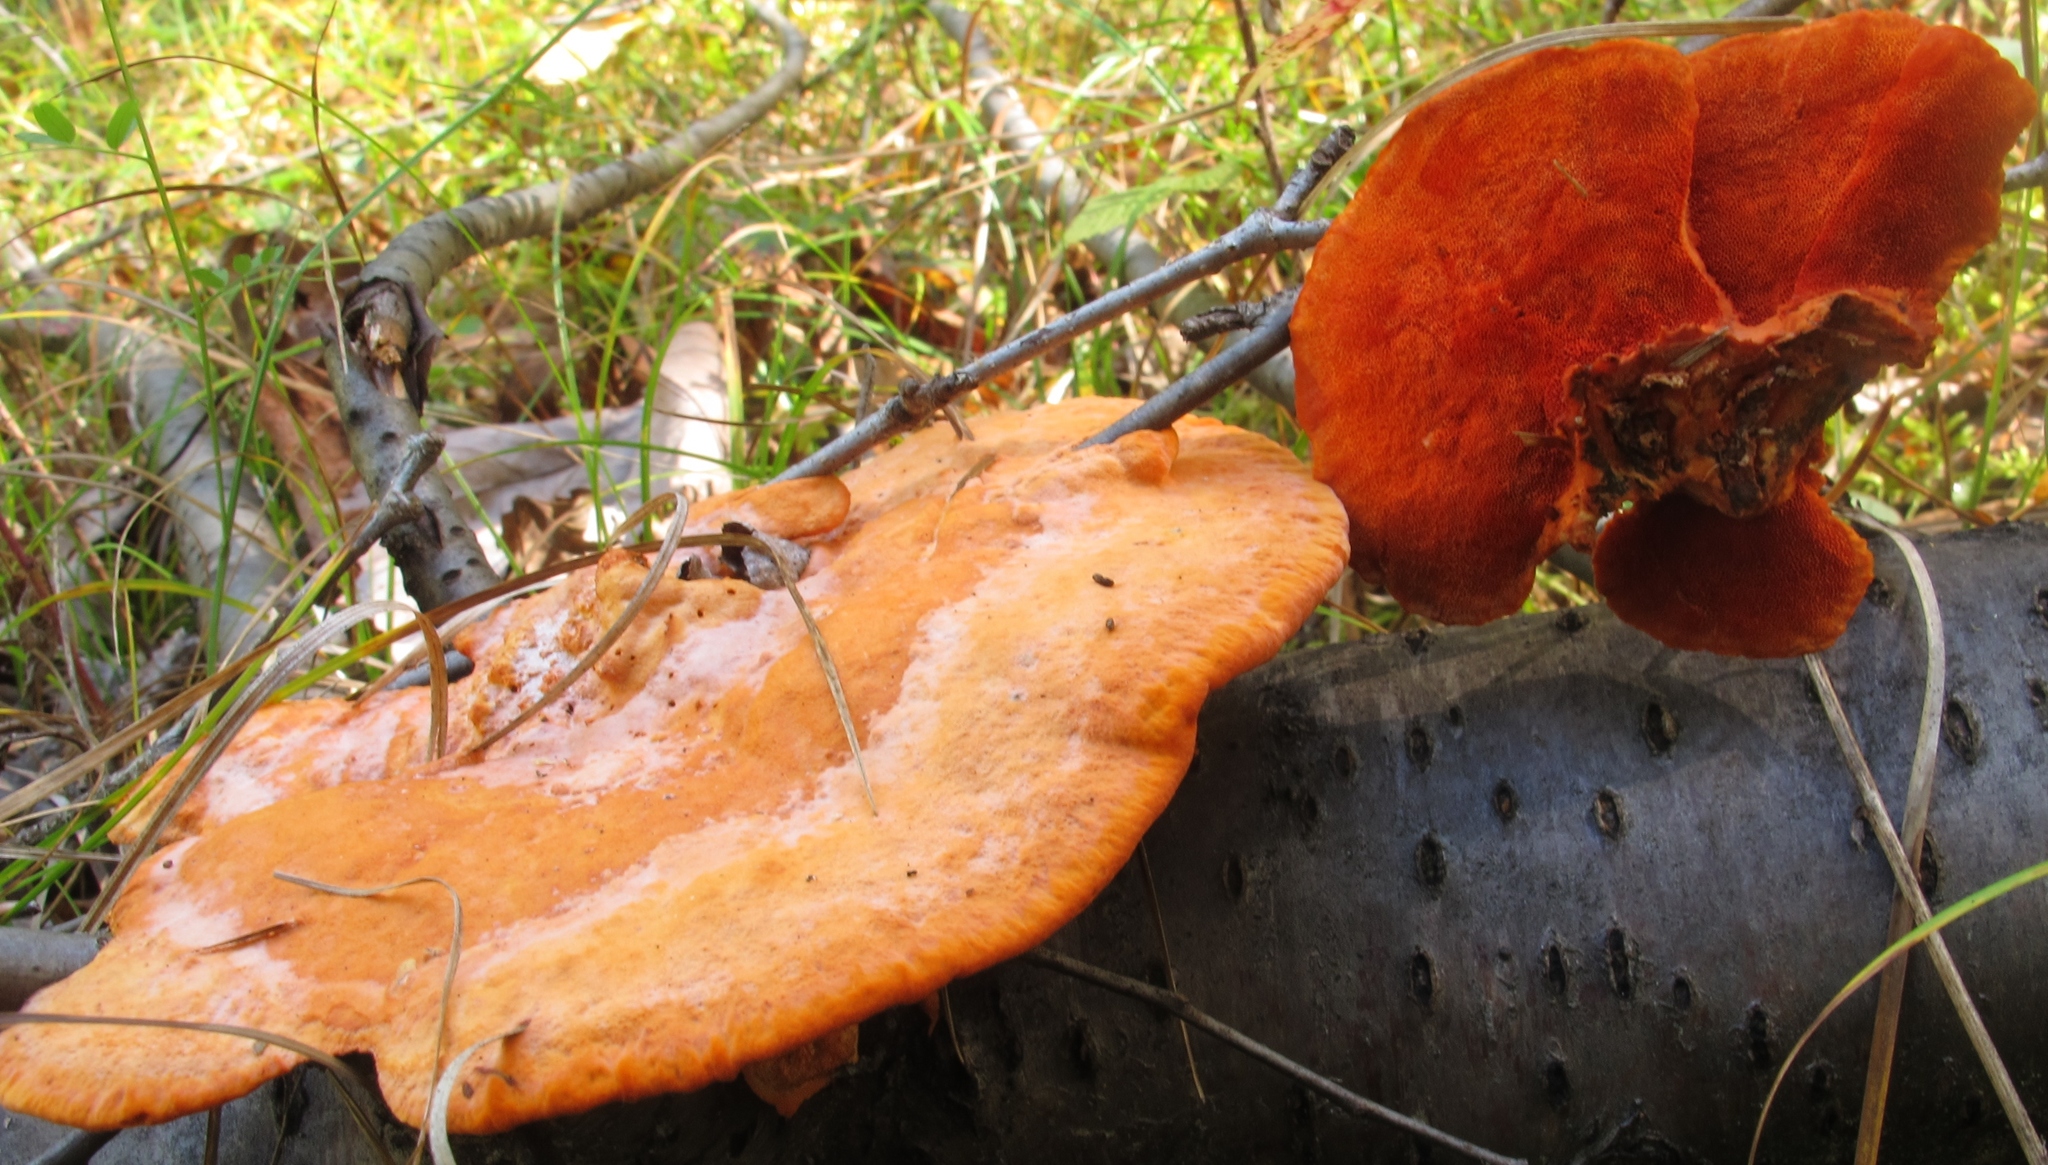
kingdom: Fungi
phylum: Basidiomycota
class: Agaricomycetes
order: Polyporales
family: Polyporaceae
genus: Trametes
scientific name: Trametes cinnabarina
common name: Northern cinnabar polypore
